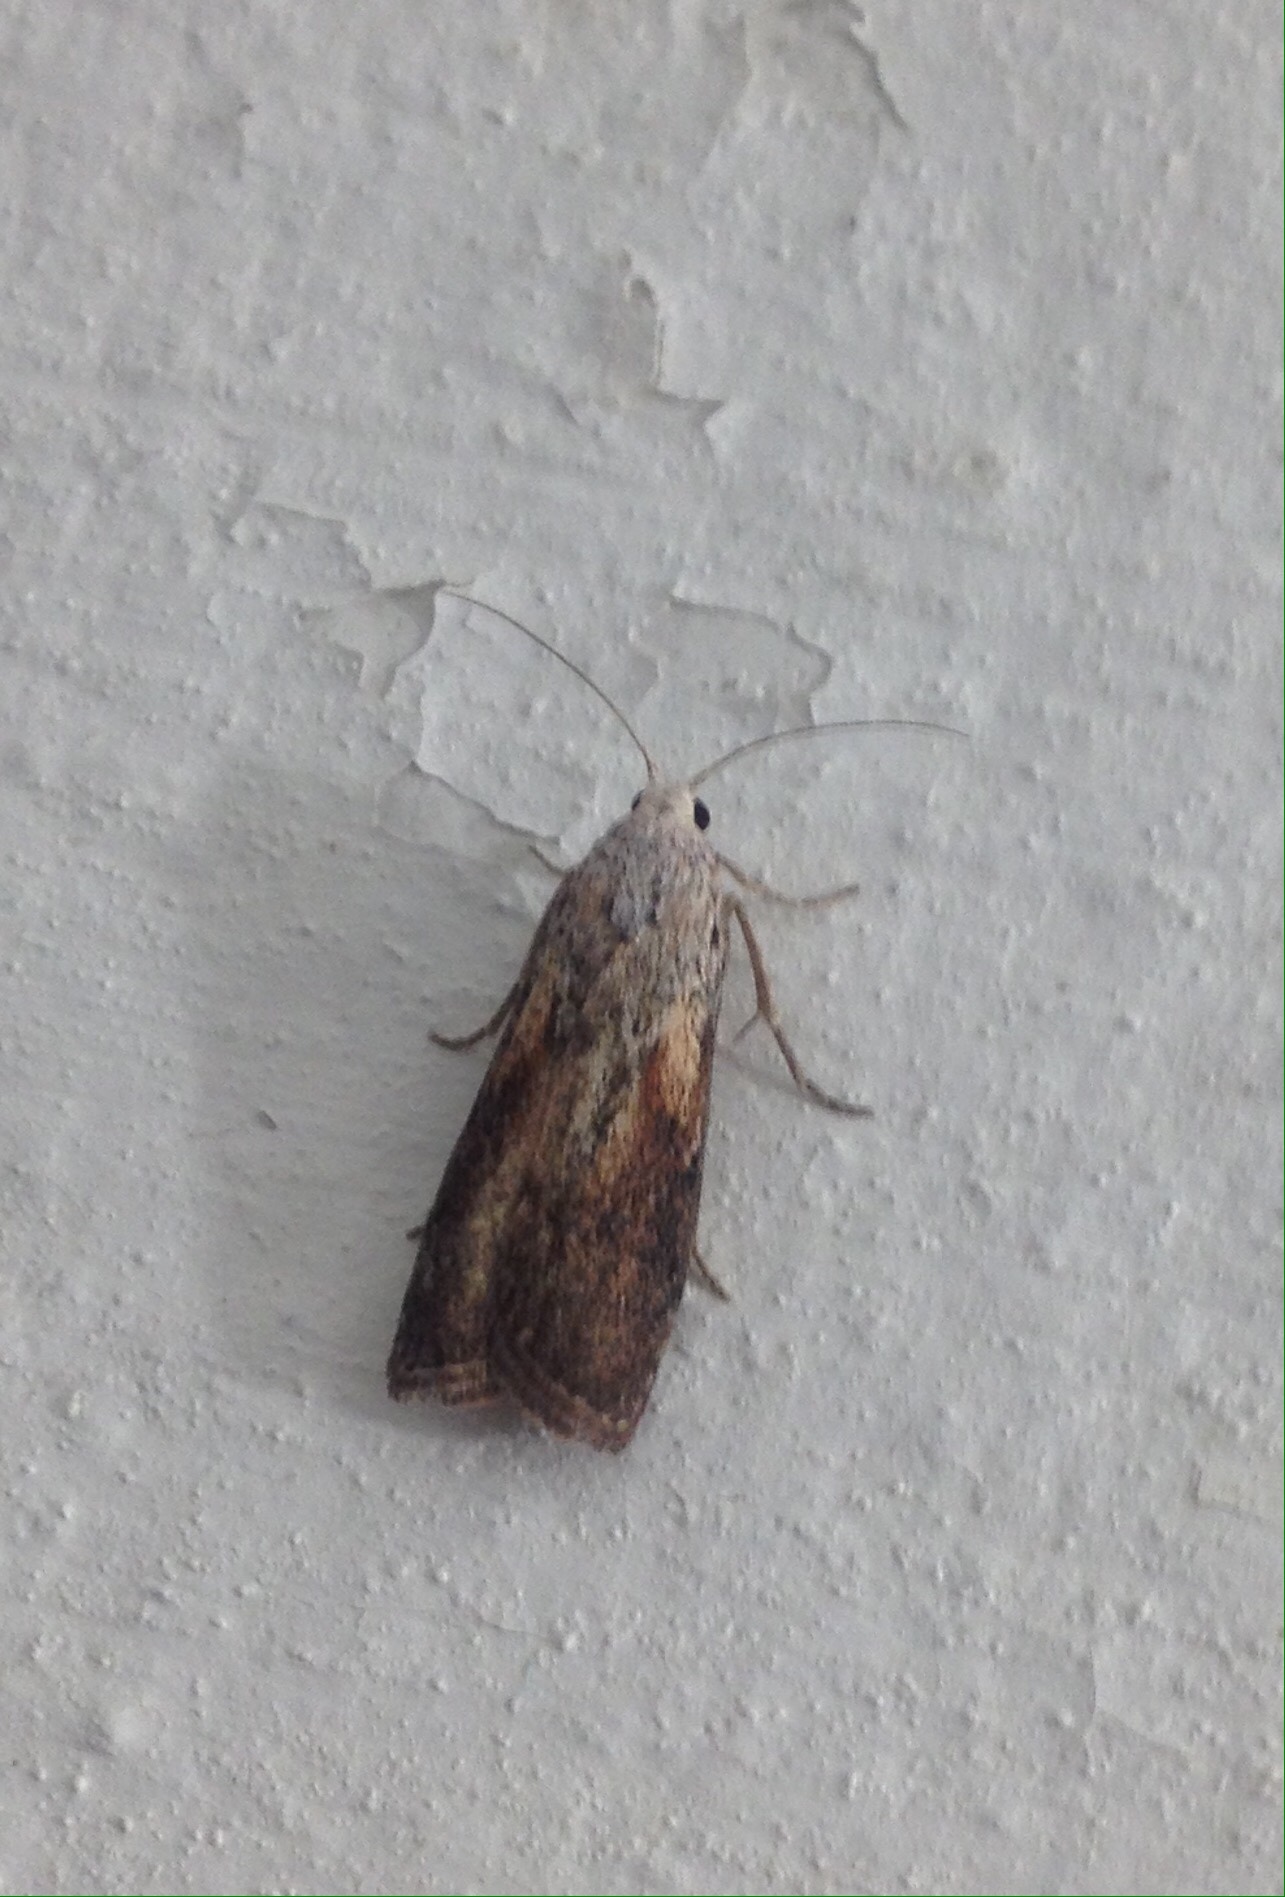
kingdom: Animalia
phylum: Arthropoda
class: Insecta
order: Lepidoptera
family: Pyralidae
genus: Aphomia
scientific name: Aphomia sociella
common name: Bee moth
